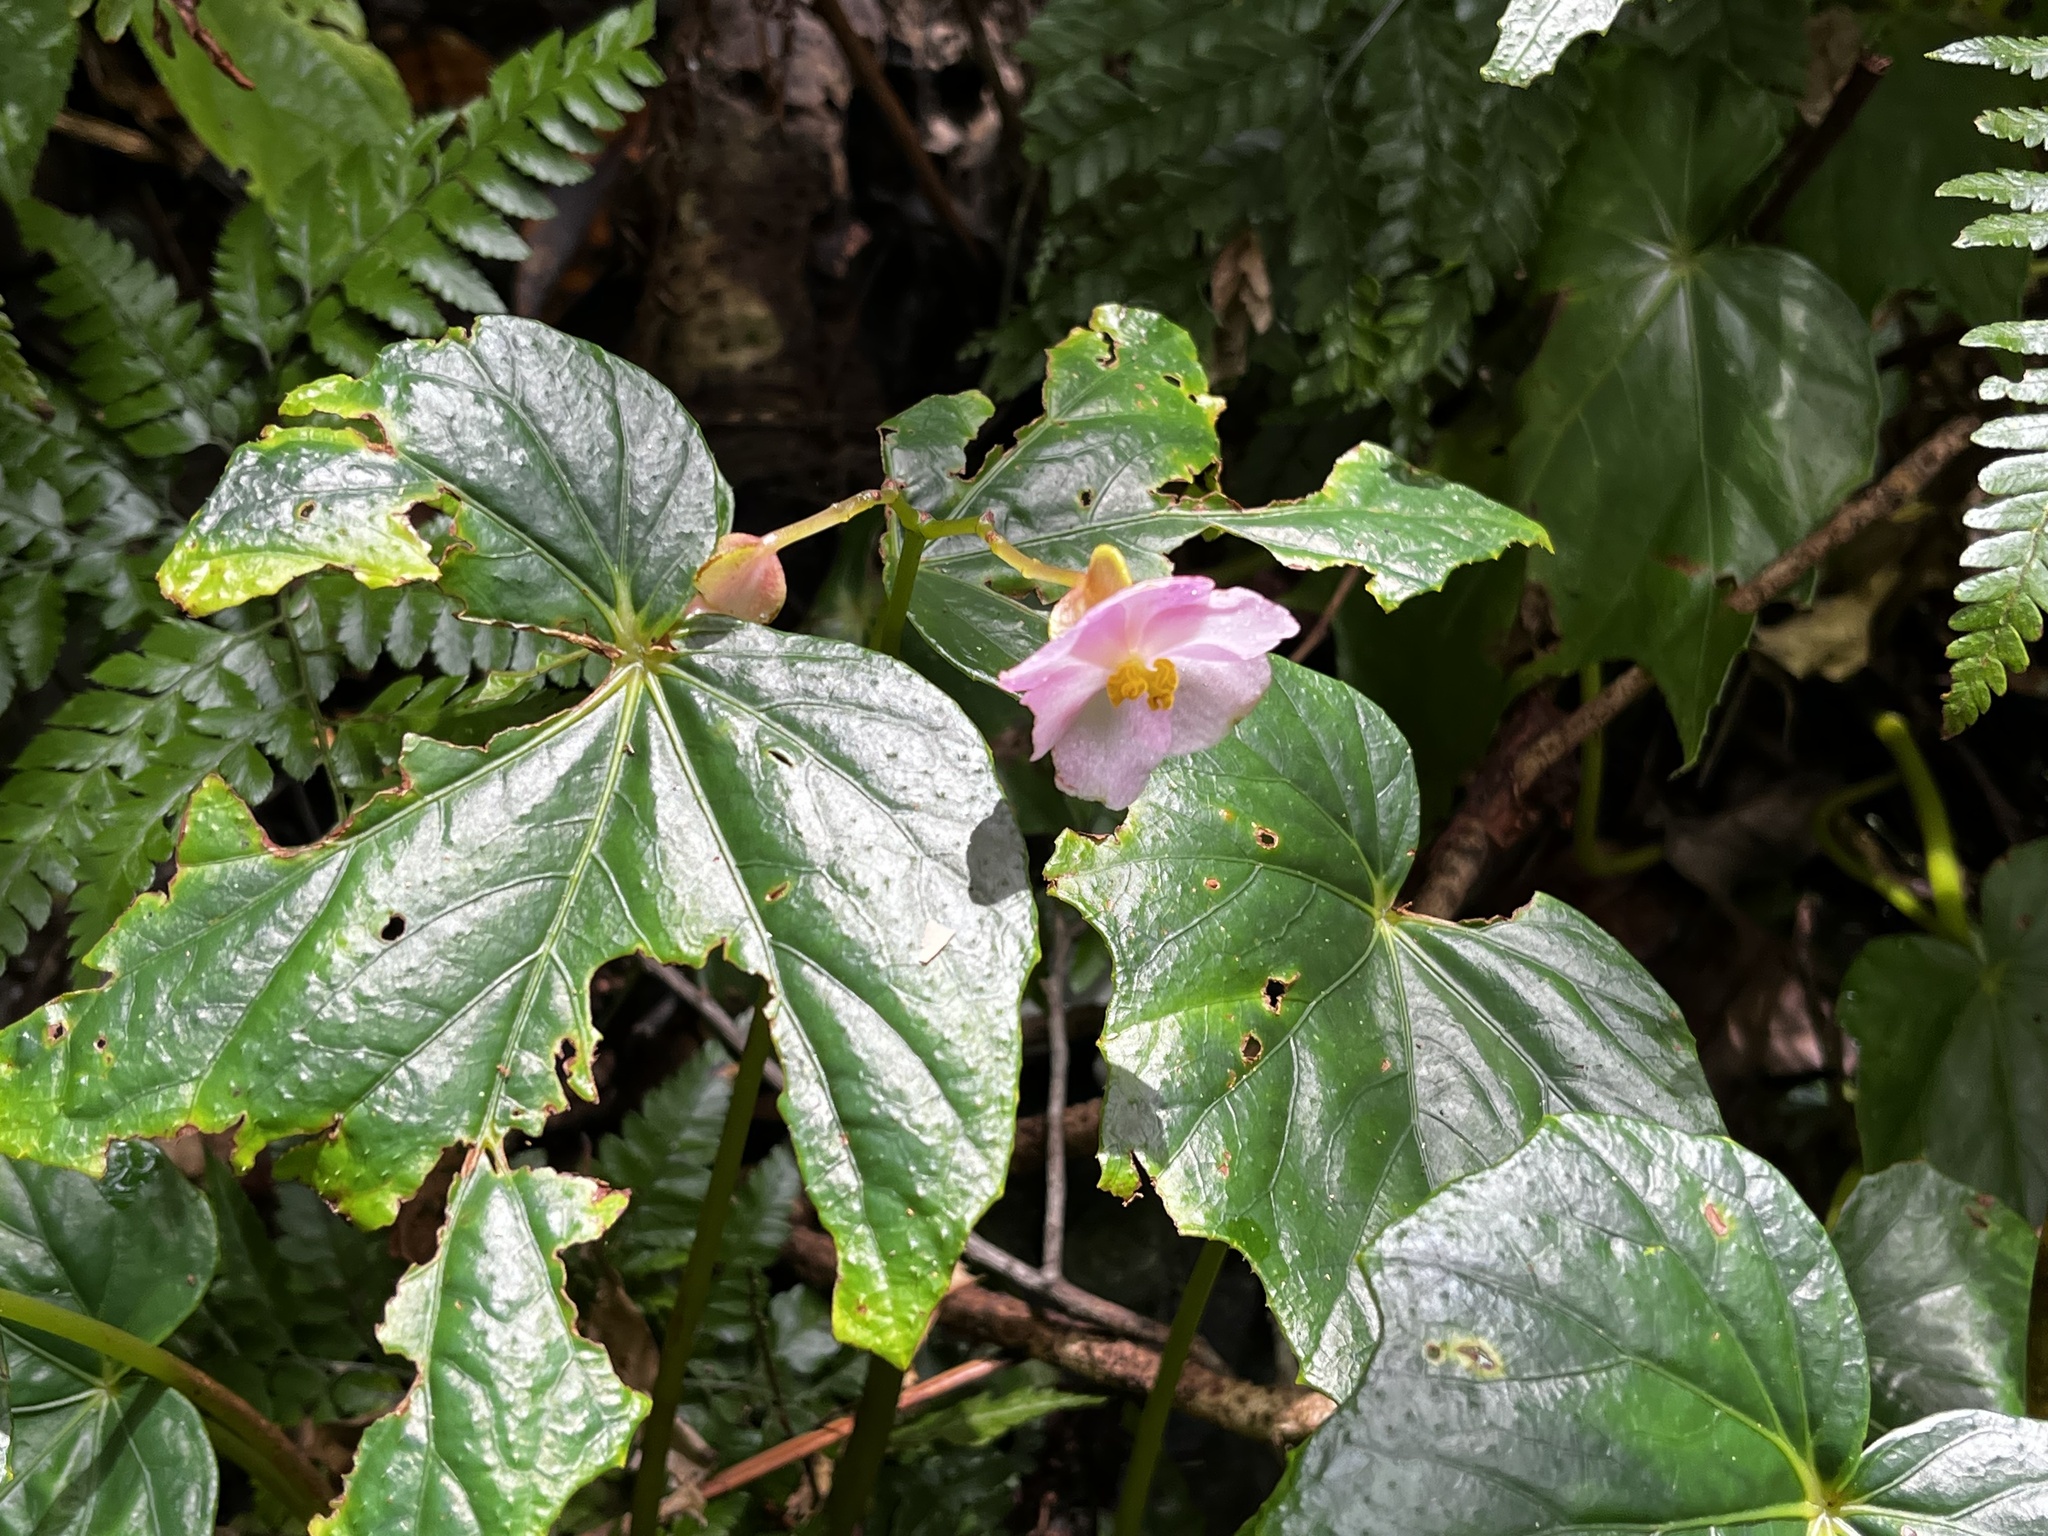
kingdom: Plantae
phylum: Tracheophyta
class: Magnoliopsida
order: Cucurbitales
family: Begoniaceae
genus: Begonia
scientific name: Begonia formosana
